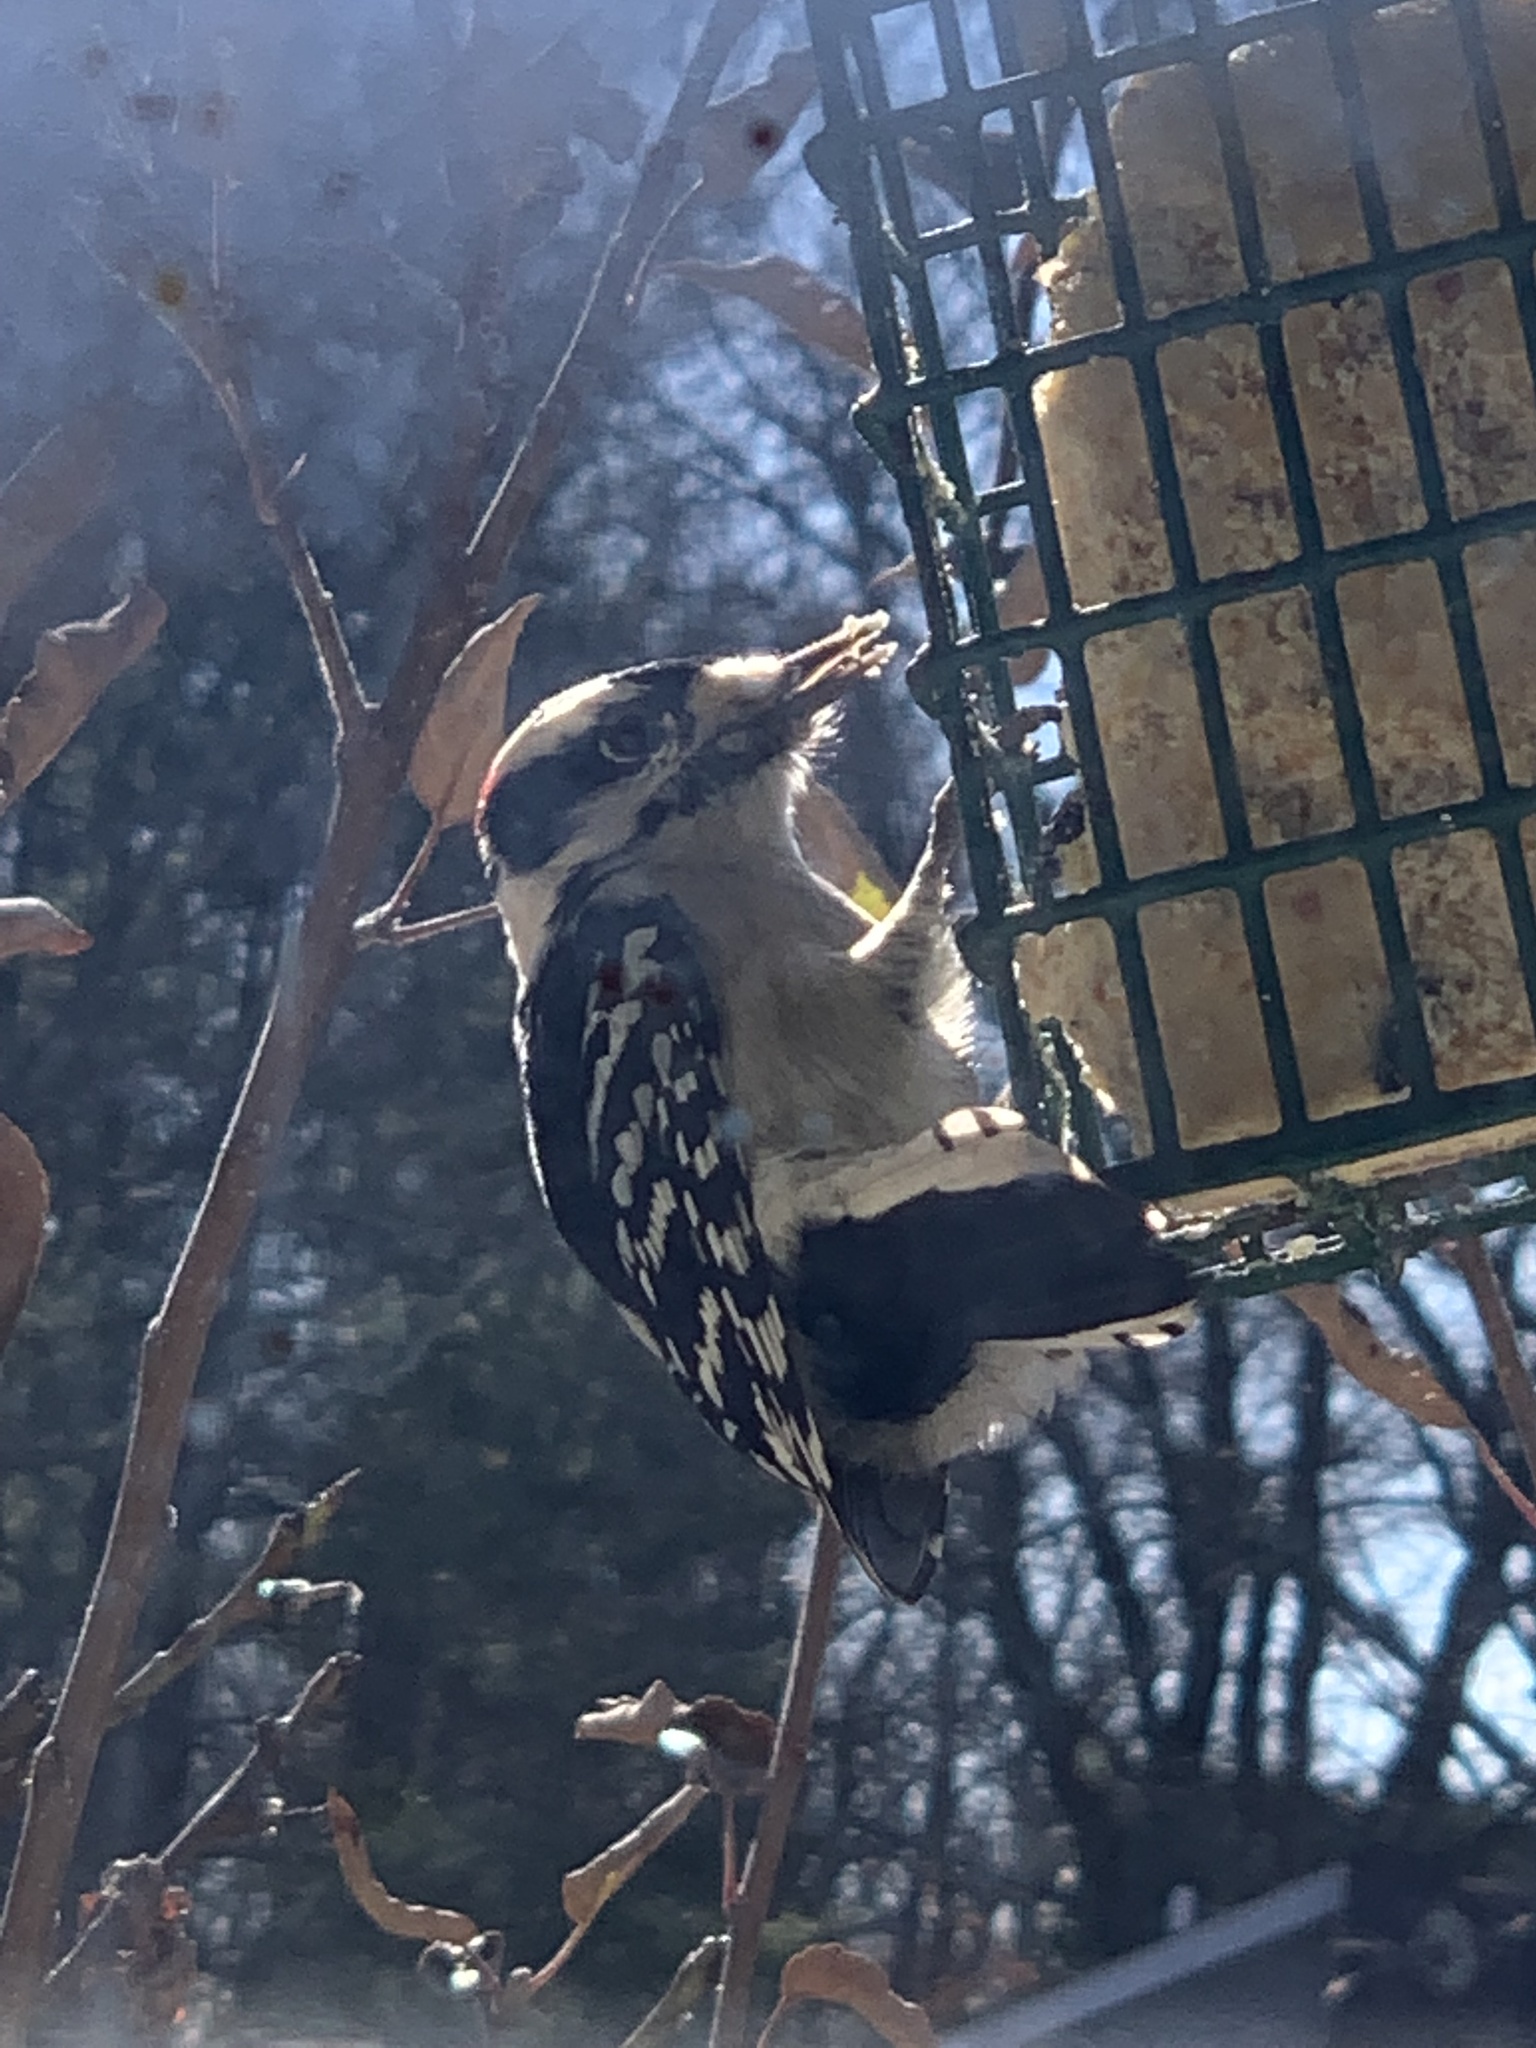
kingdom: Animalia
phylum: Chordata
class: Aves
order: Piciformes
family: Picidae
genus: Dryobates
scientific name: Dryobates pubescens
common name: Downy woodpecker
